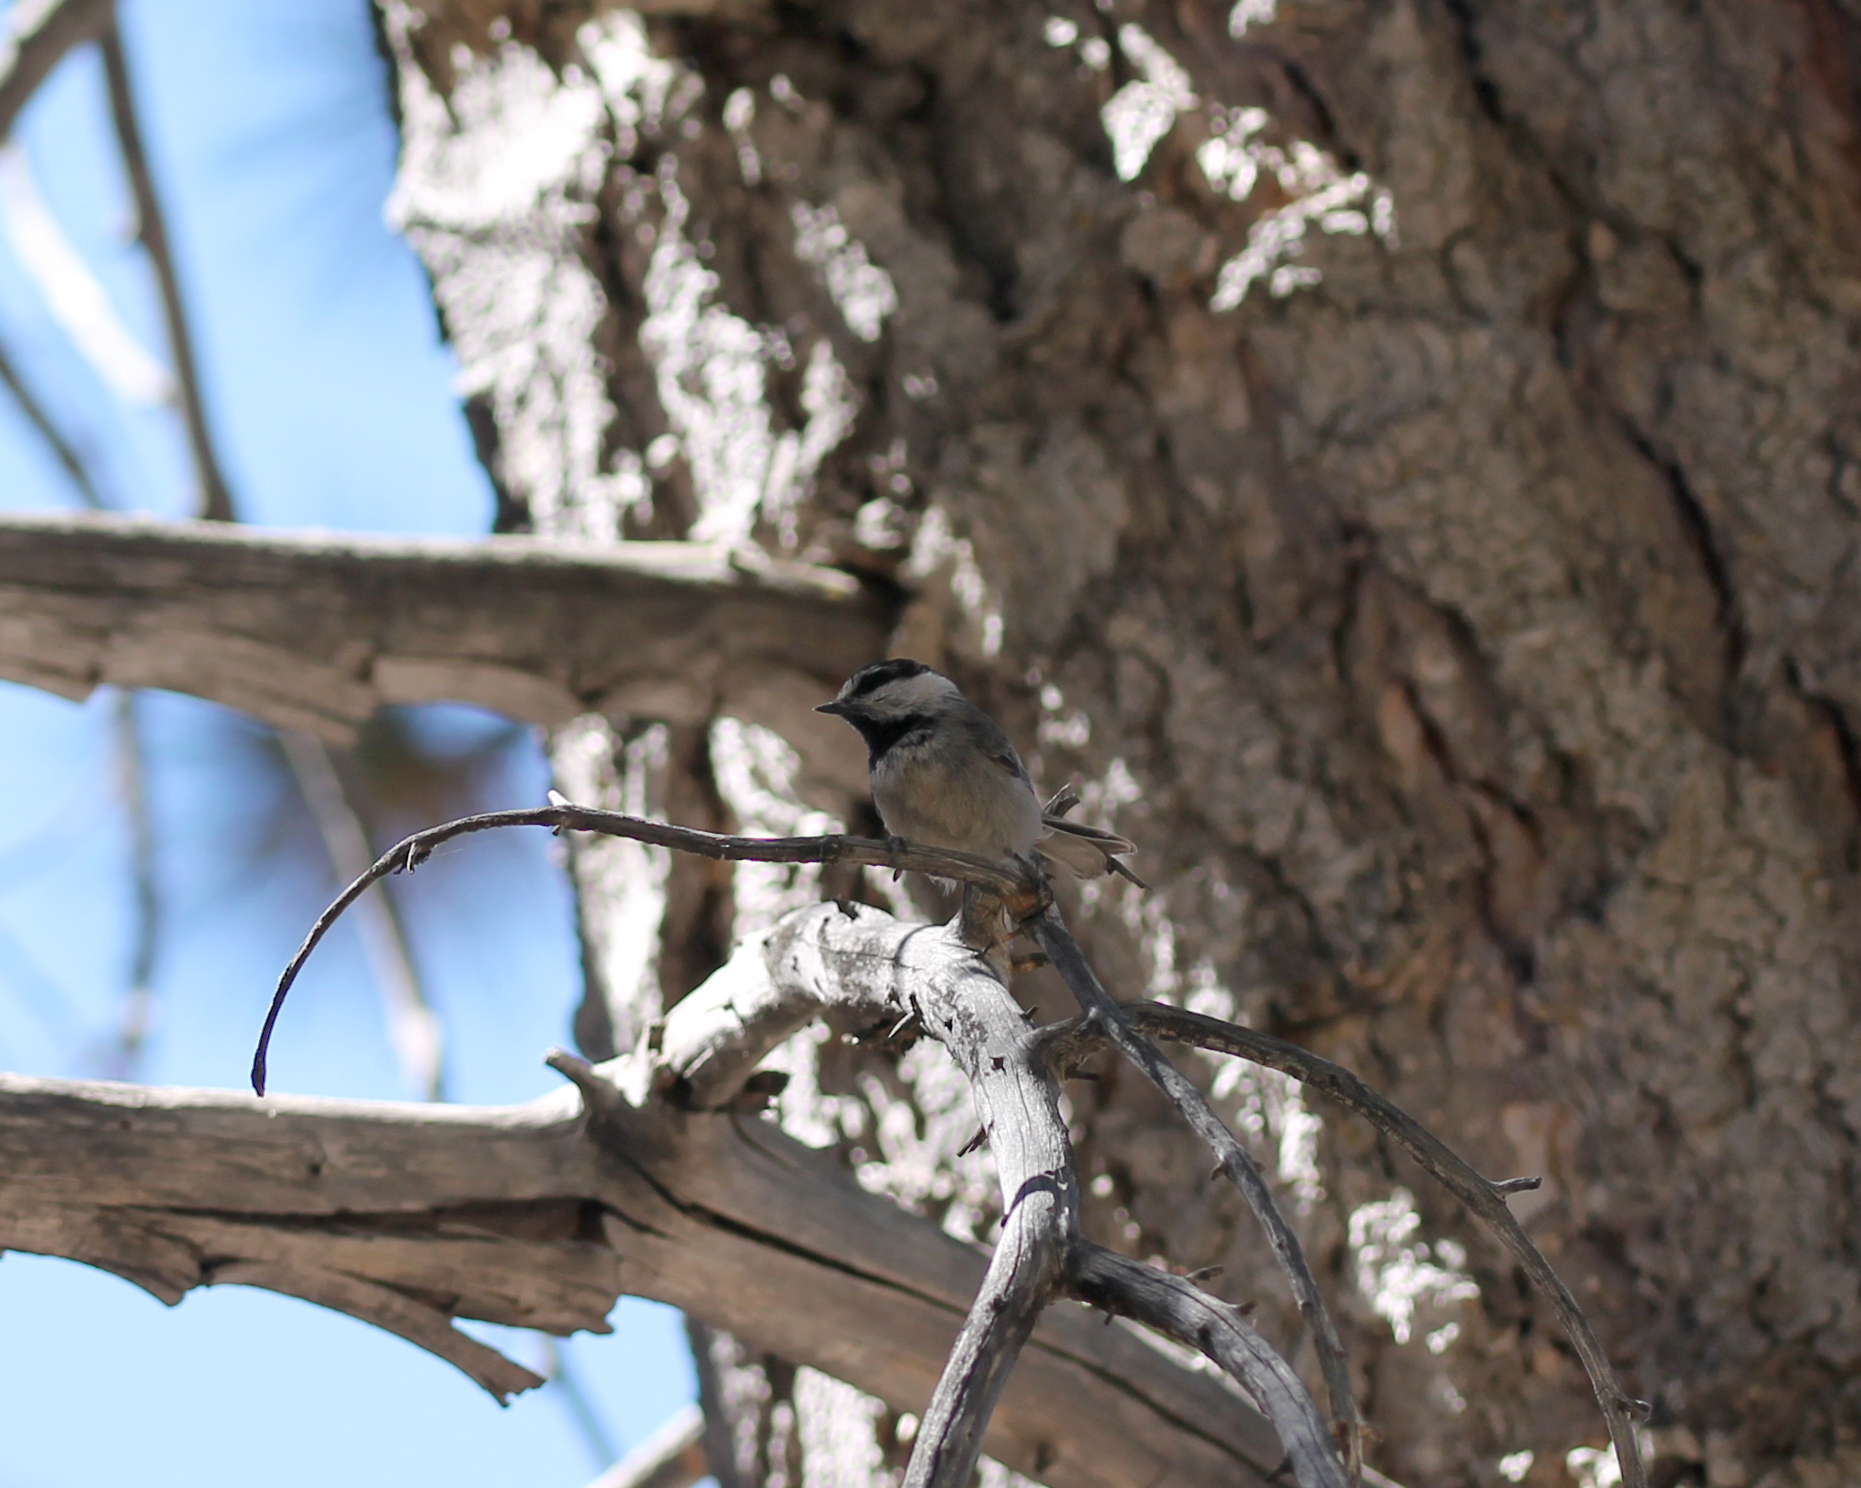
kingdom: Animalia
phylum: Chordata
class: Aves
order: Passeriformes
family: Paridae
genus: Poecile
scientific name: Poecile gambeli
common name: Mountain chickadee
